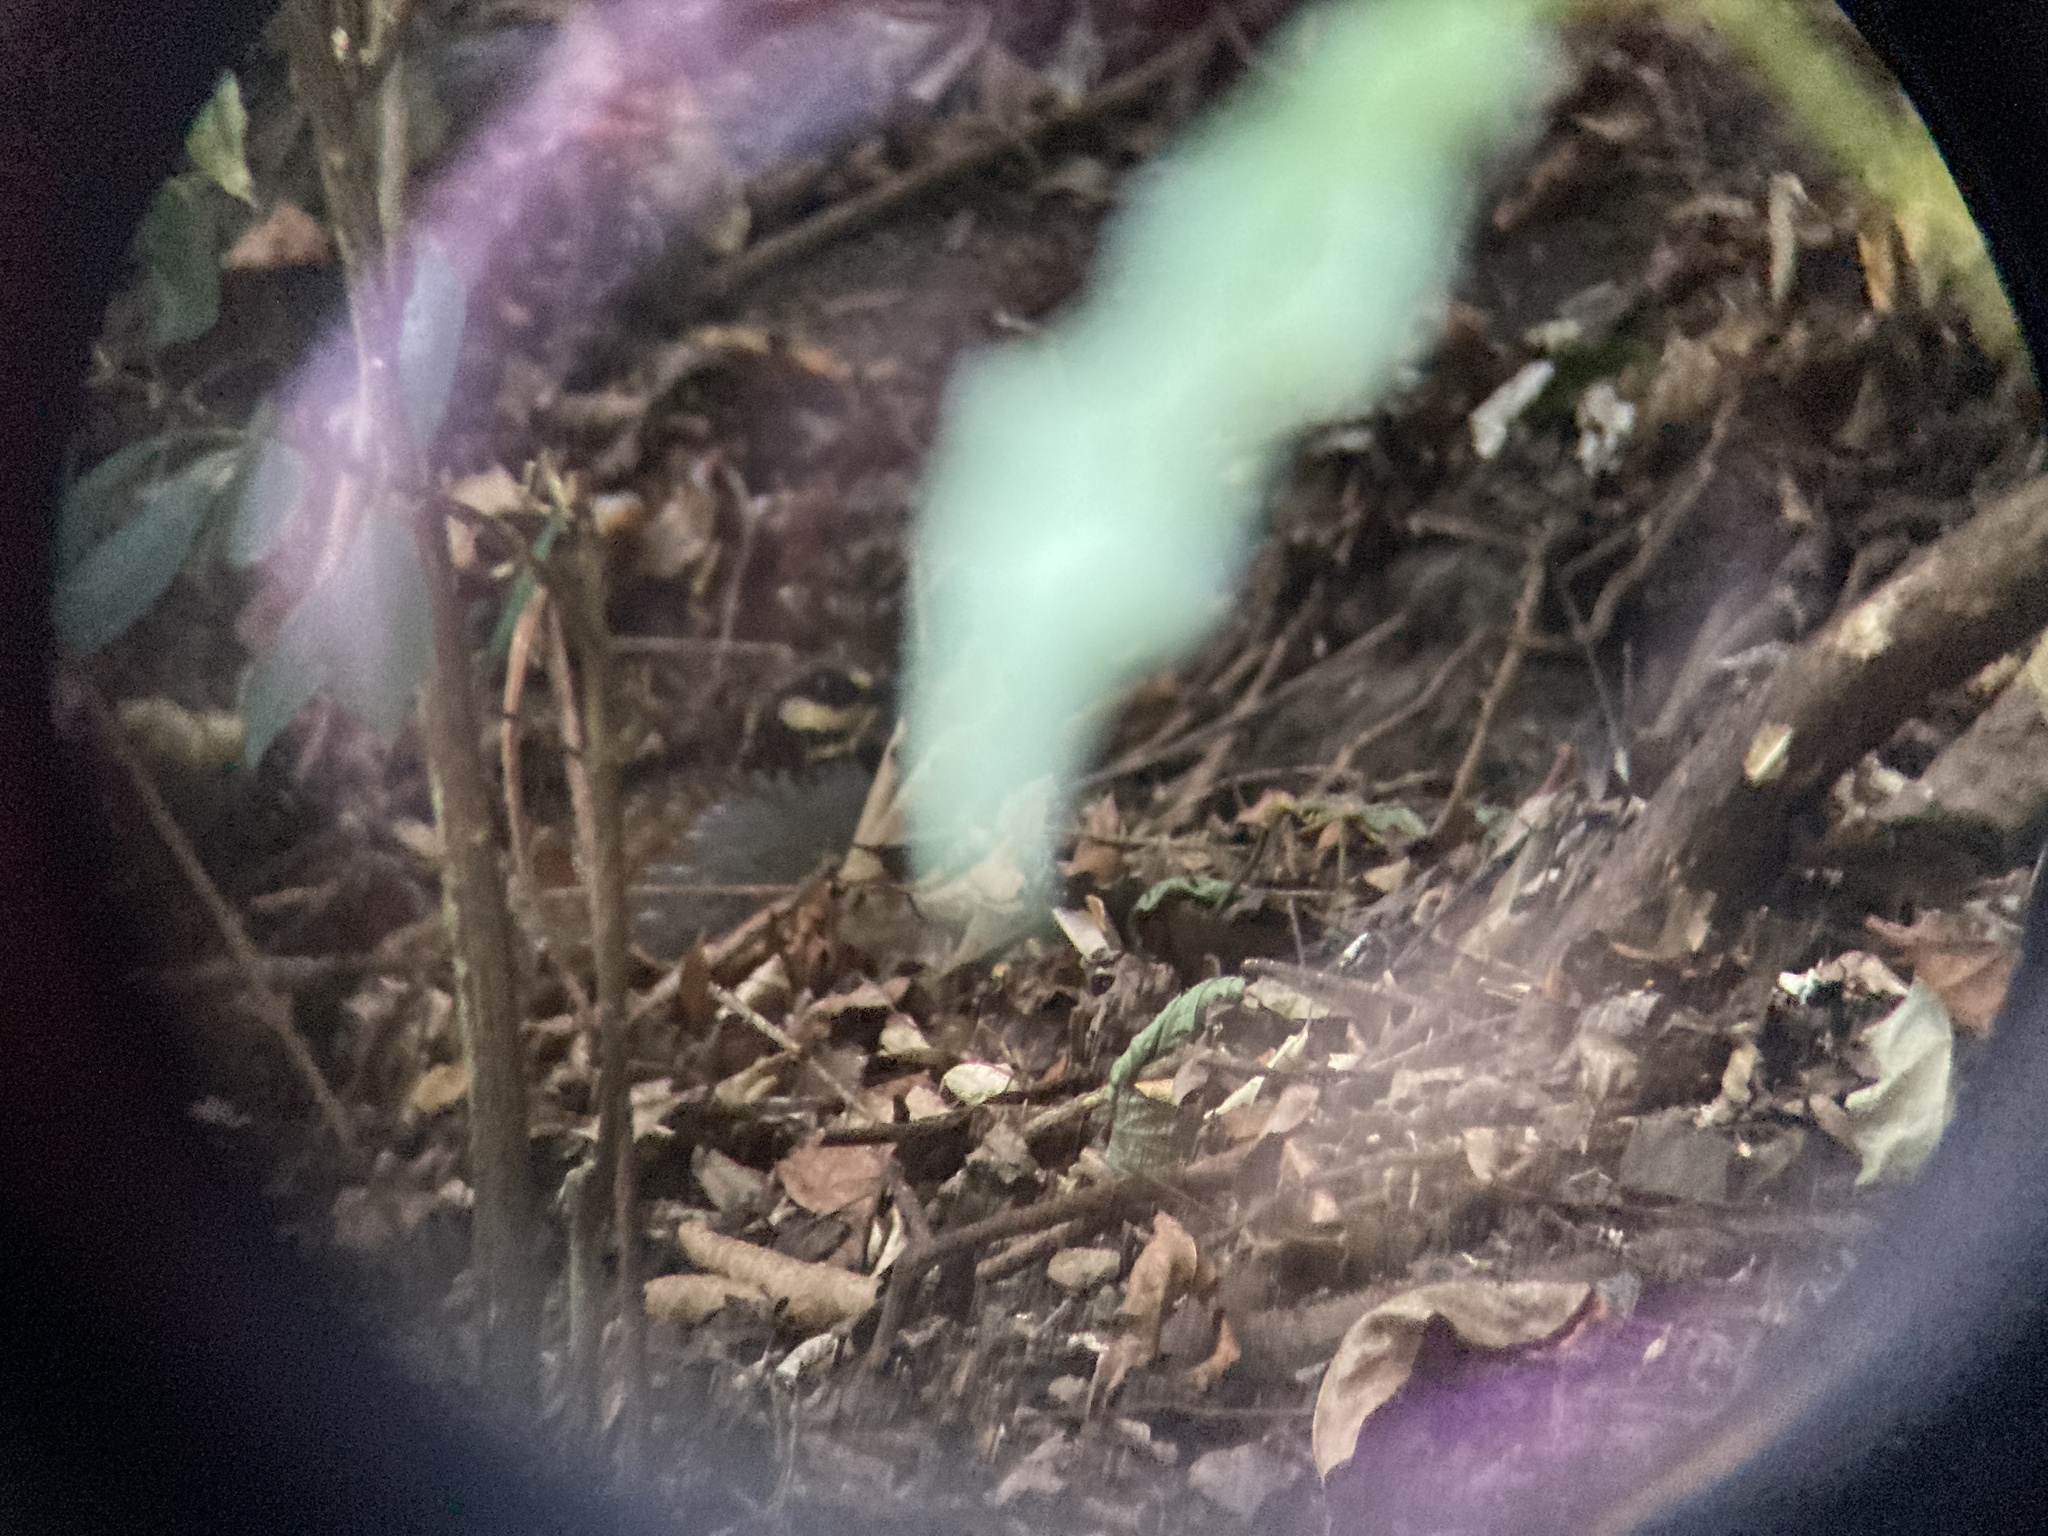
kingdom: Animalia
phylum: Chordata
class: Aves
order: Galliformes
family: Phasianidae
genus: Arborophila
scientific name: Arborophila crudigularis
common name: Taiwan partridge
